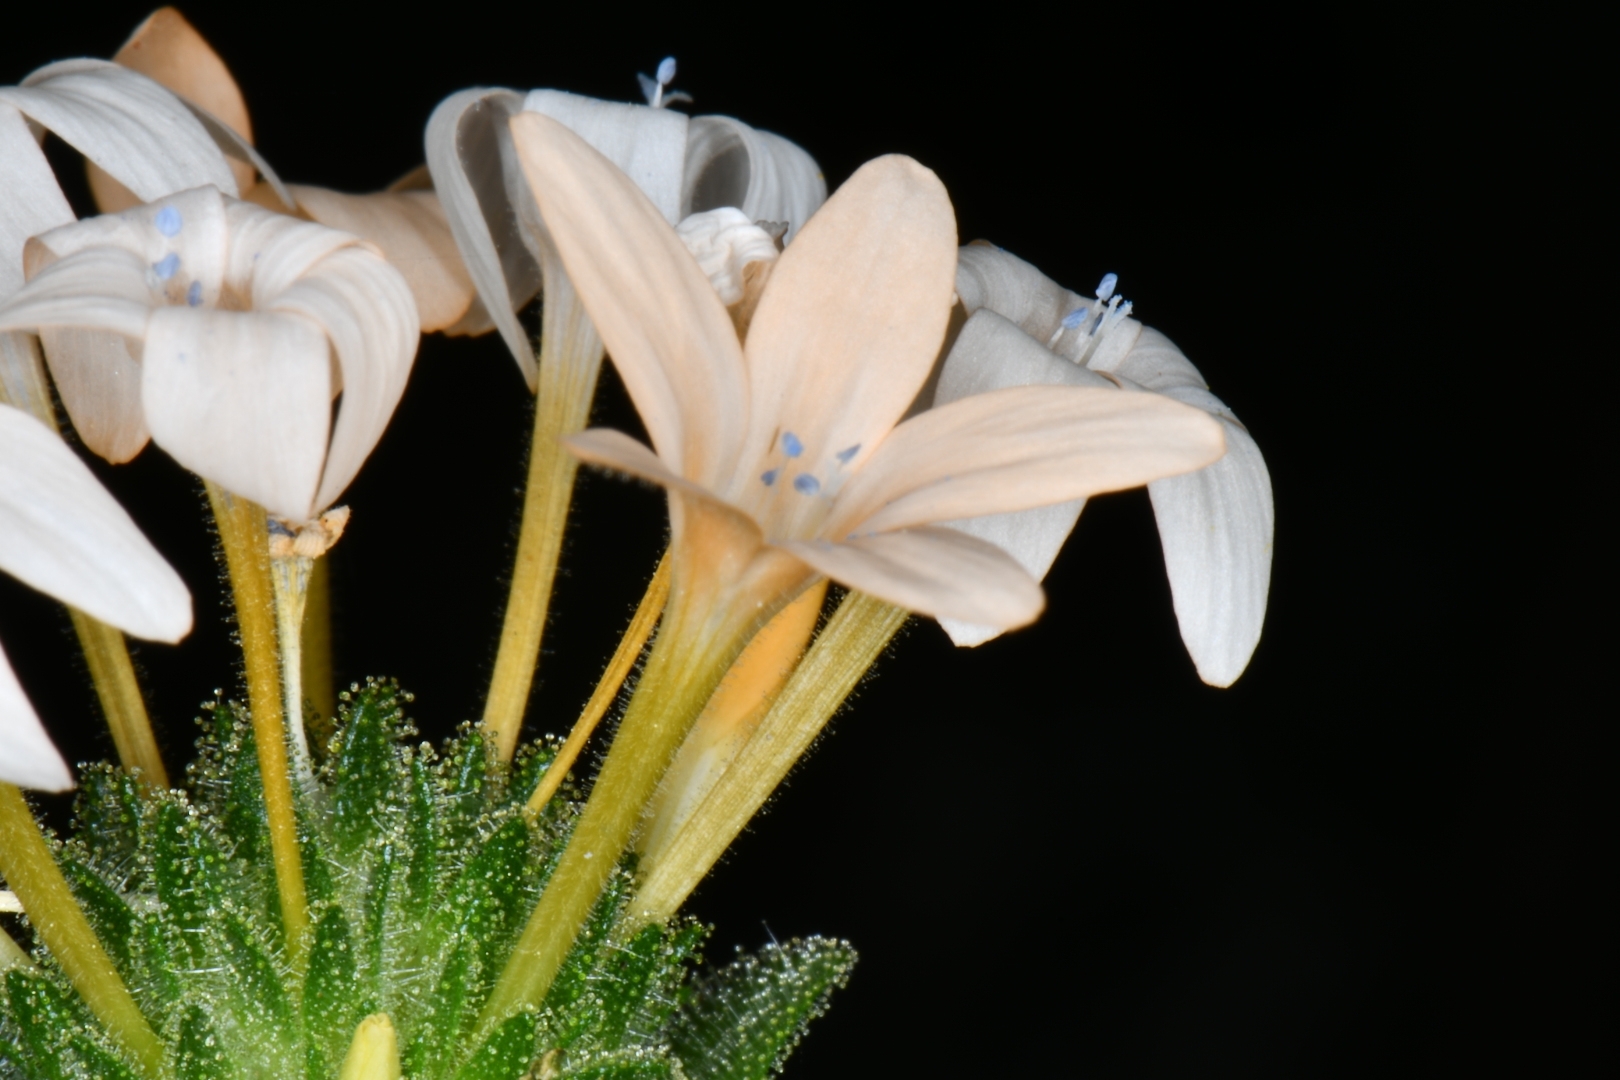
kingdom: Plantae
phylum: Tracheophyta
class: Magnoliopsida
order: Ericales
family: Polemoniaceae
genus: Collomia
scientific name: Collomia grandiflora
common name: California strawflower
